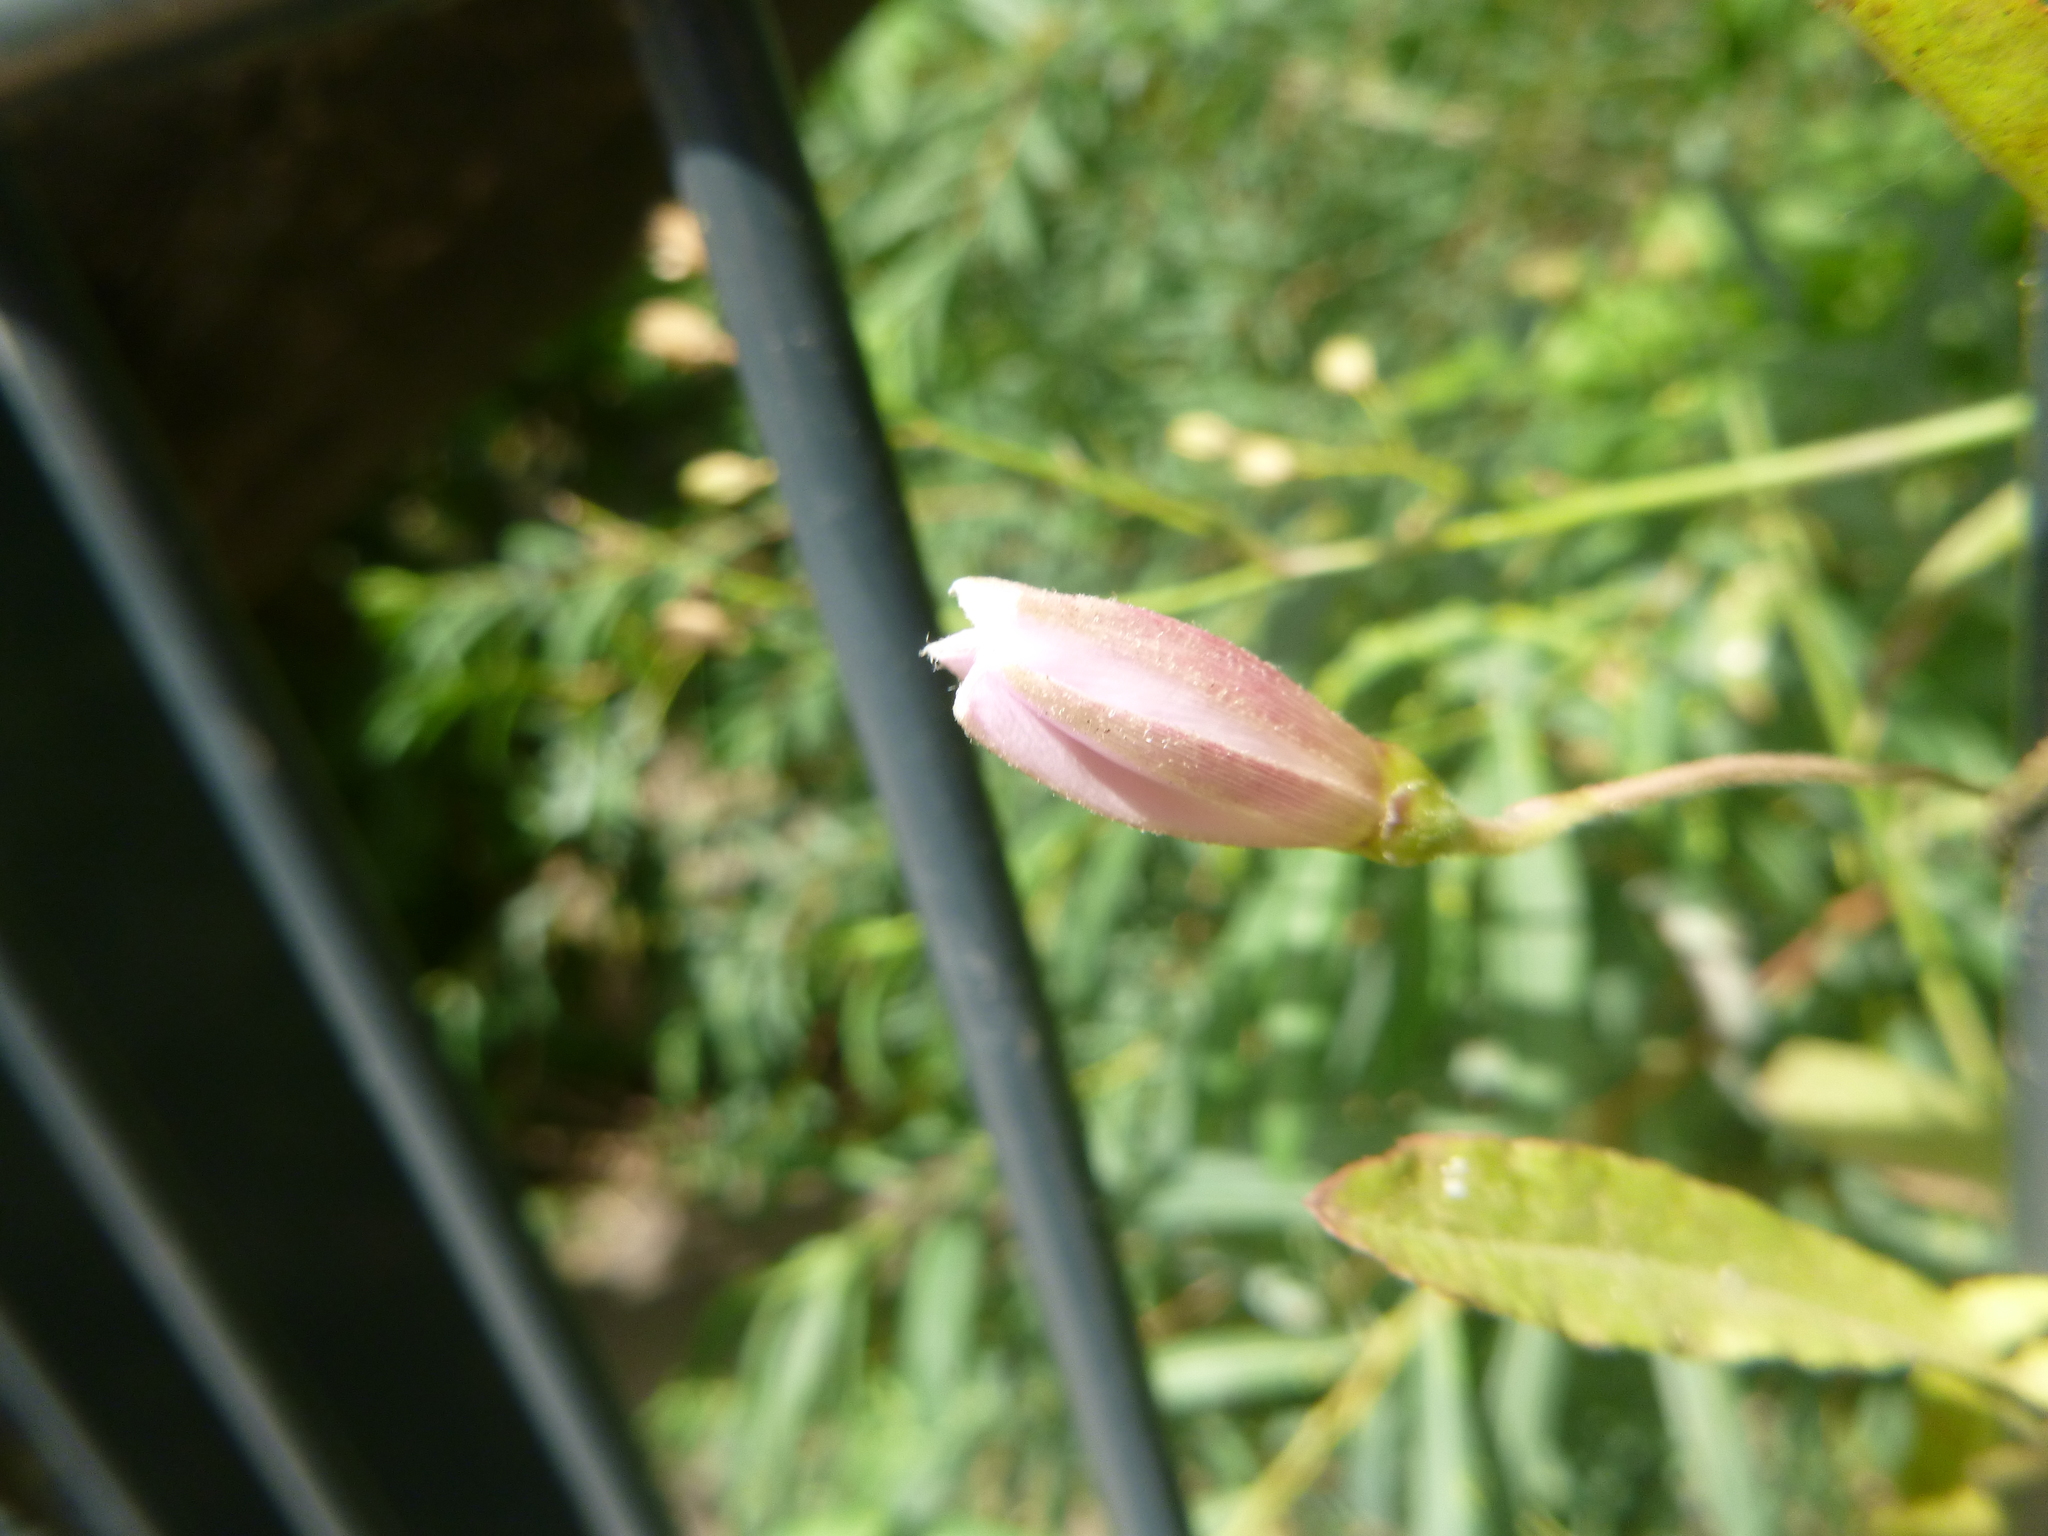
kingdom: Plantae
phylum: Tracheophyta
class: Magnoliopsida
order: Solanales
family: Convolvulaceae
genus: Convolvulus
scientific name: Convolvulus arvensis
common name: Field bindweed
